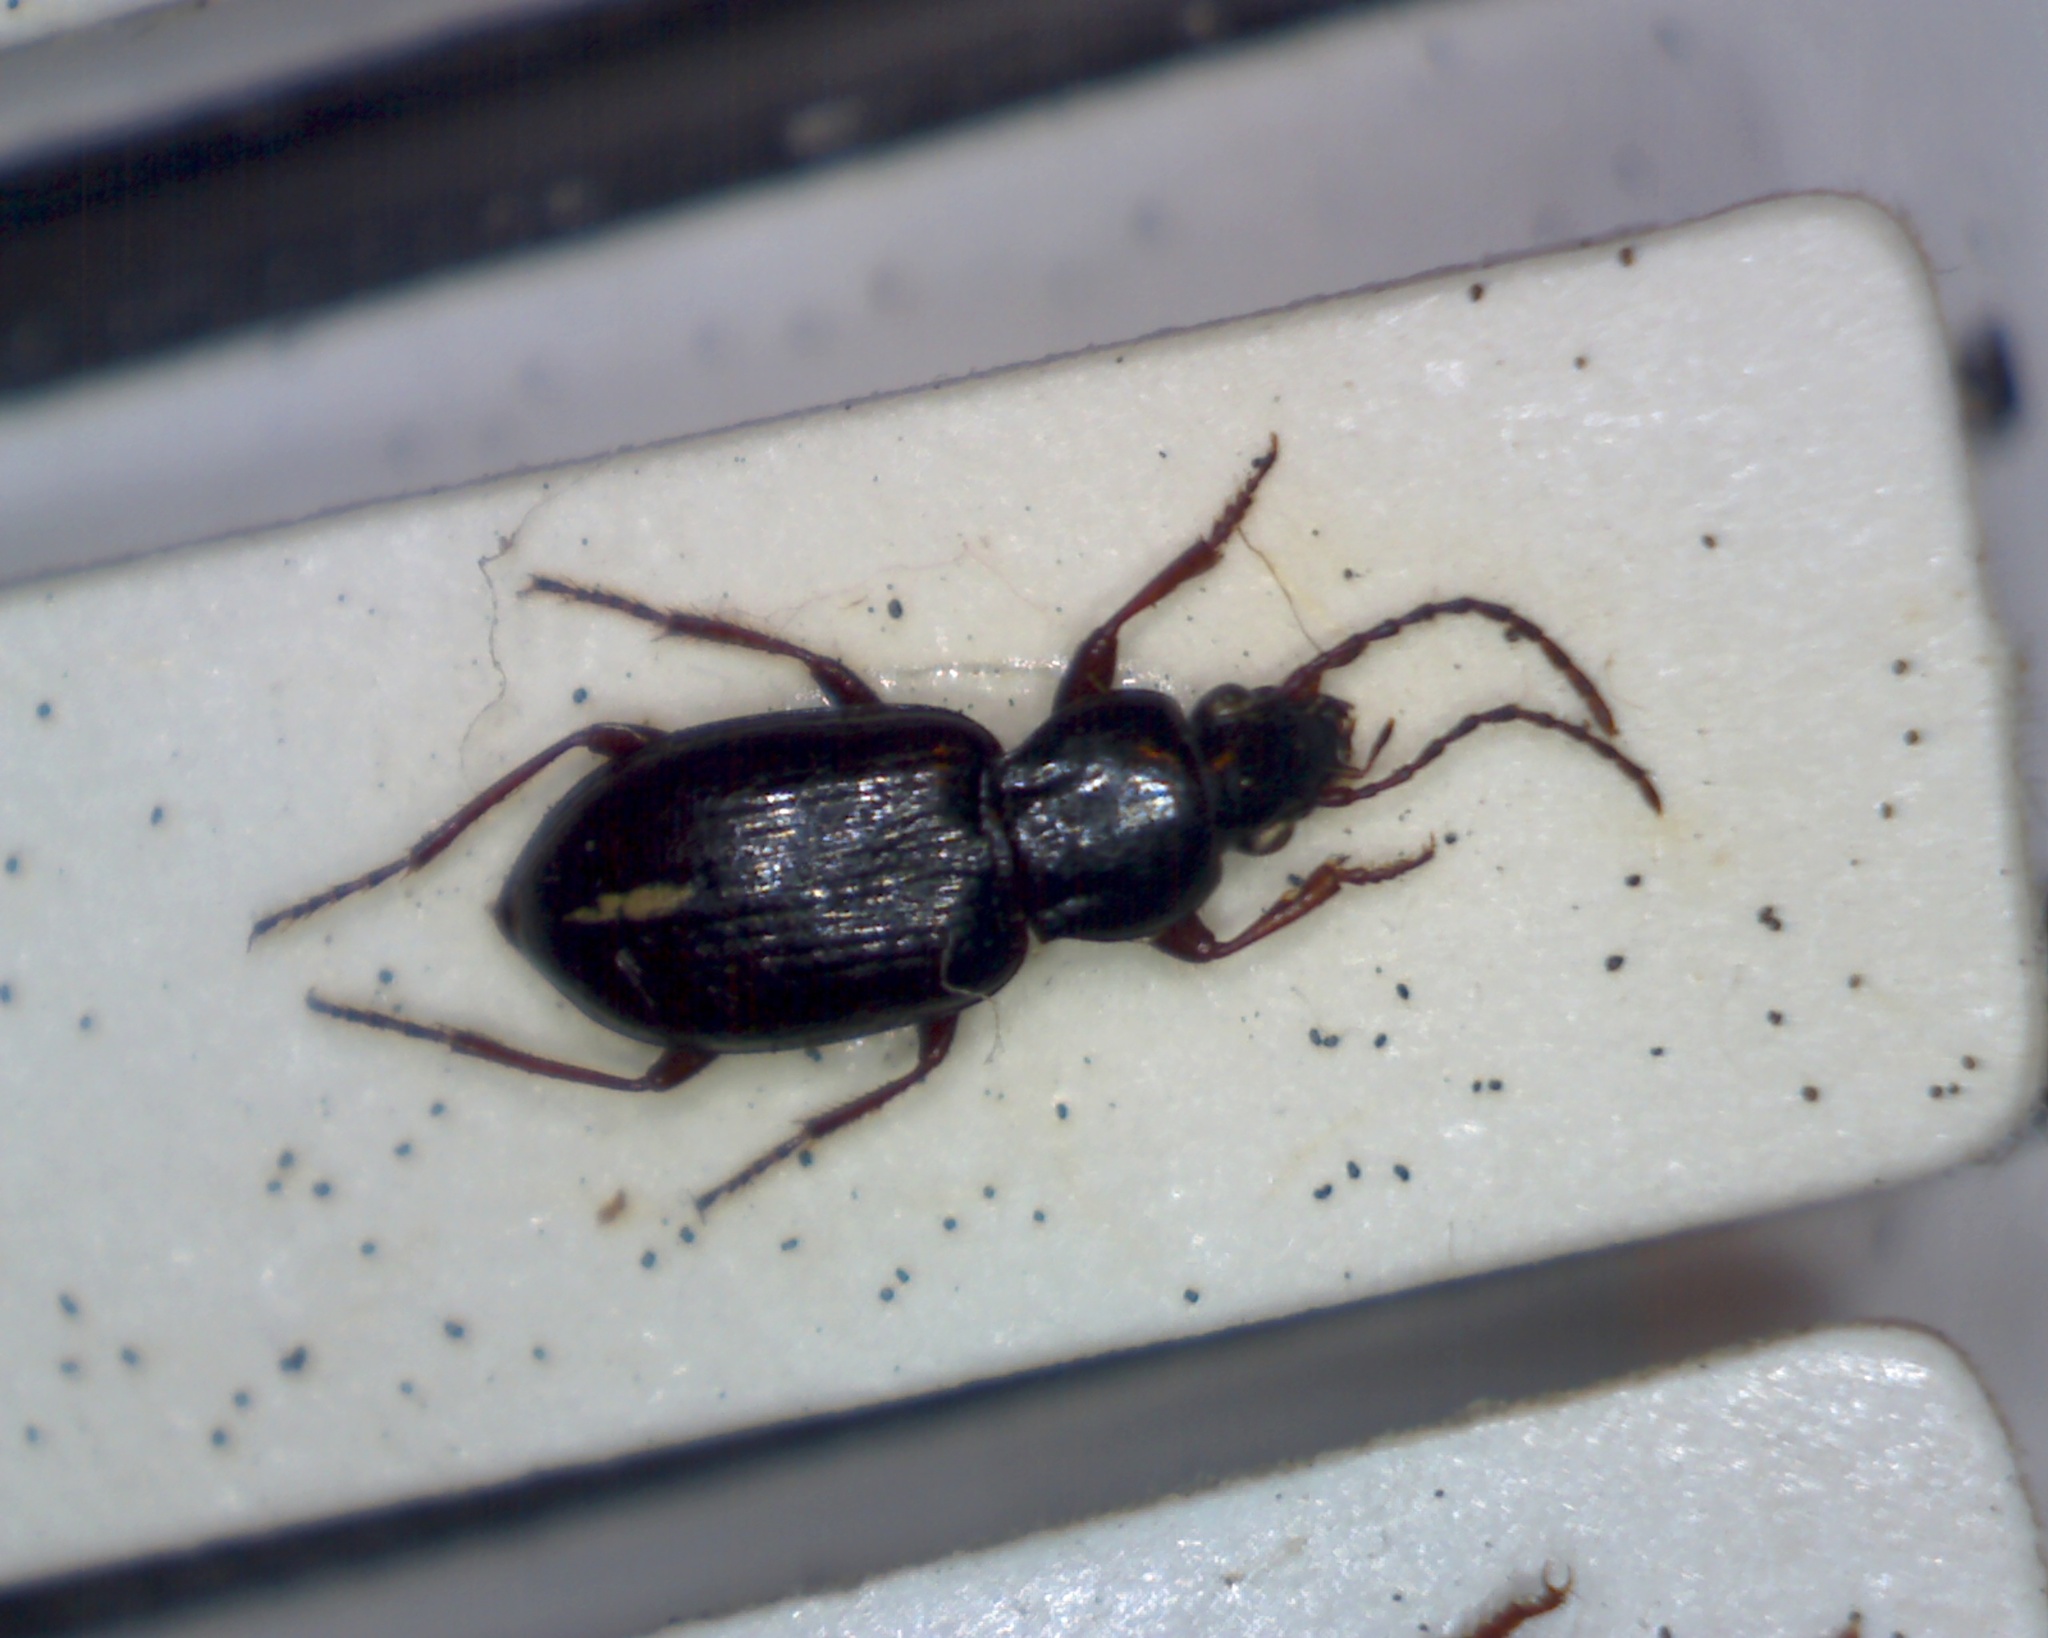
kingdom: Animalia
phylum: Arthropoda
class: Insecta
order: Coleoptera
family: Carabidae
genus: Pterostichus
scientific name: Pterostichus strenuus
